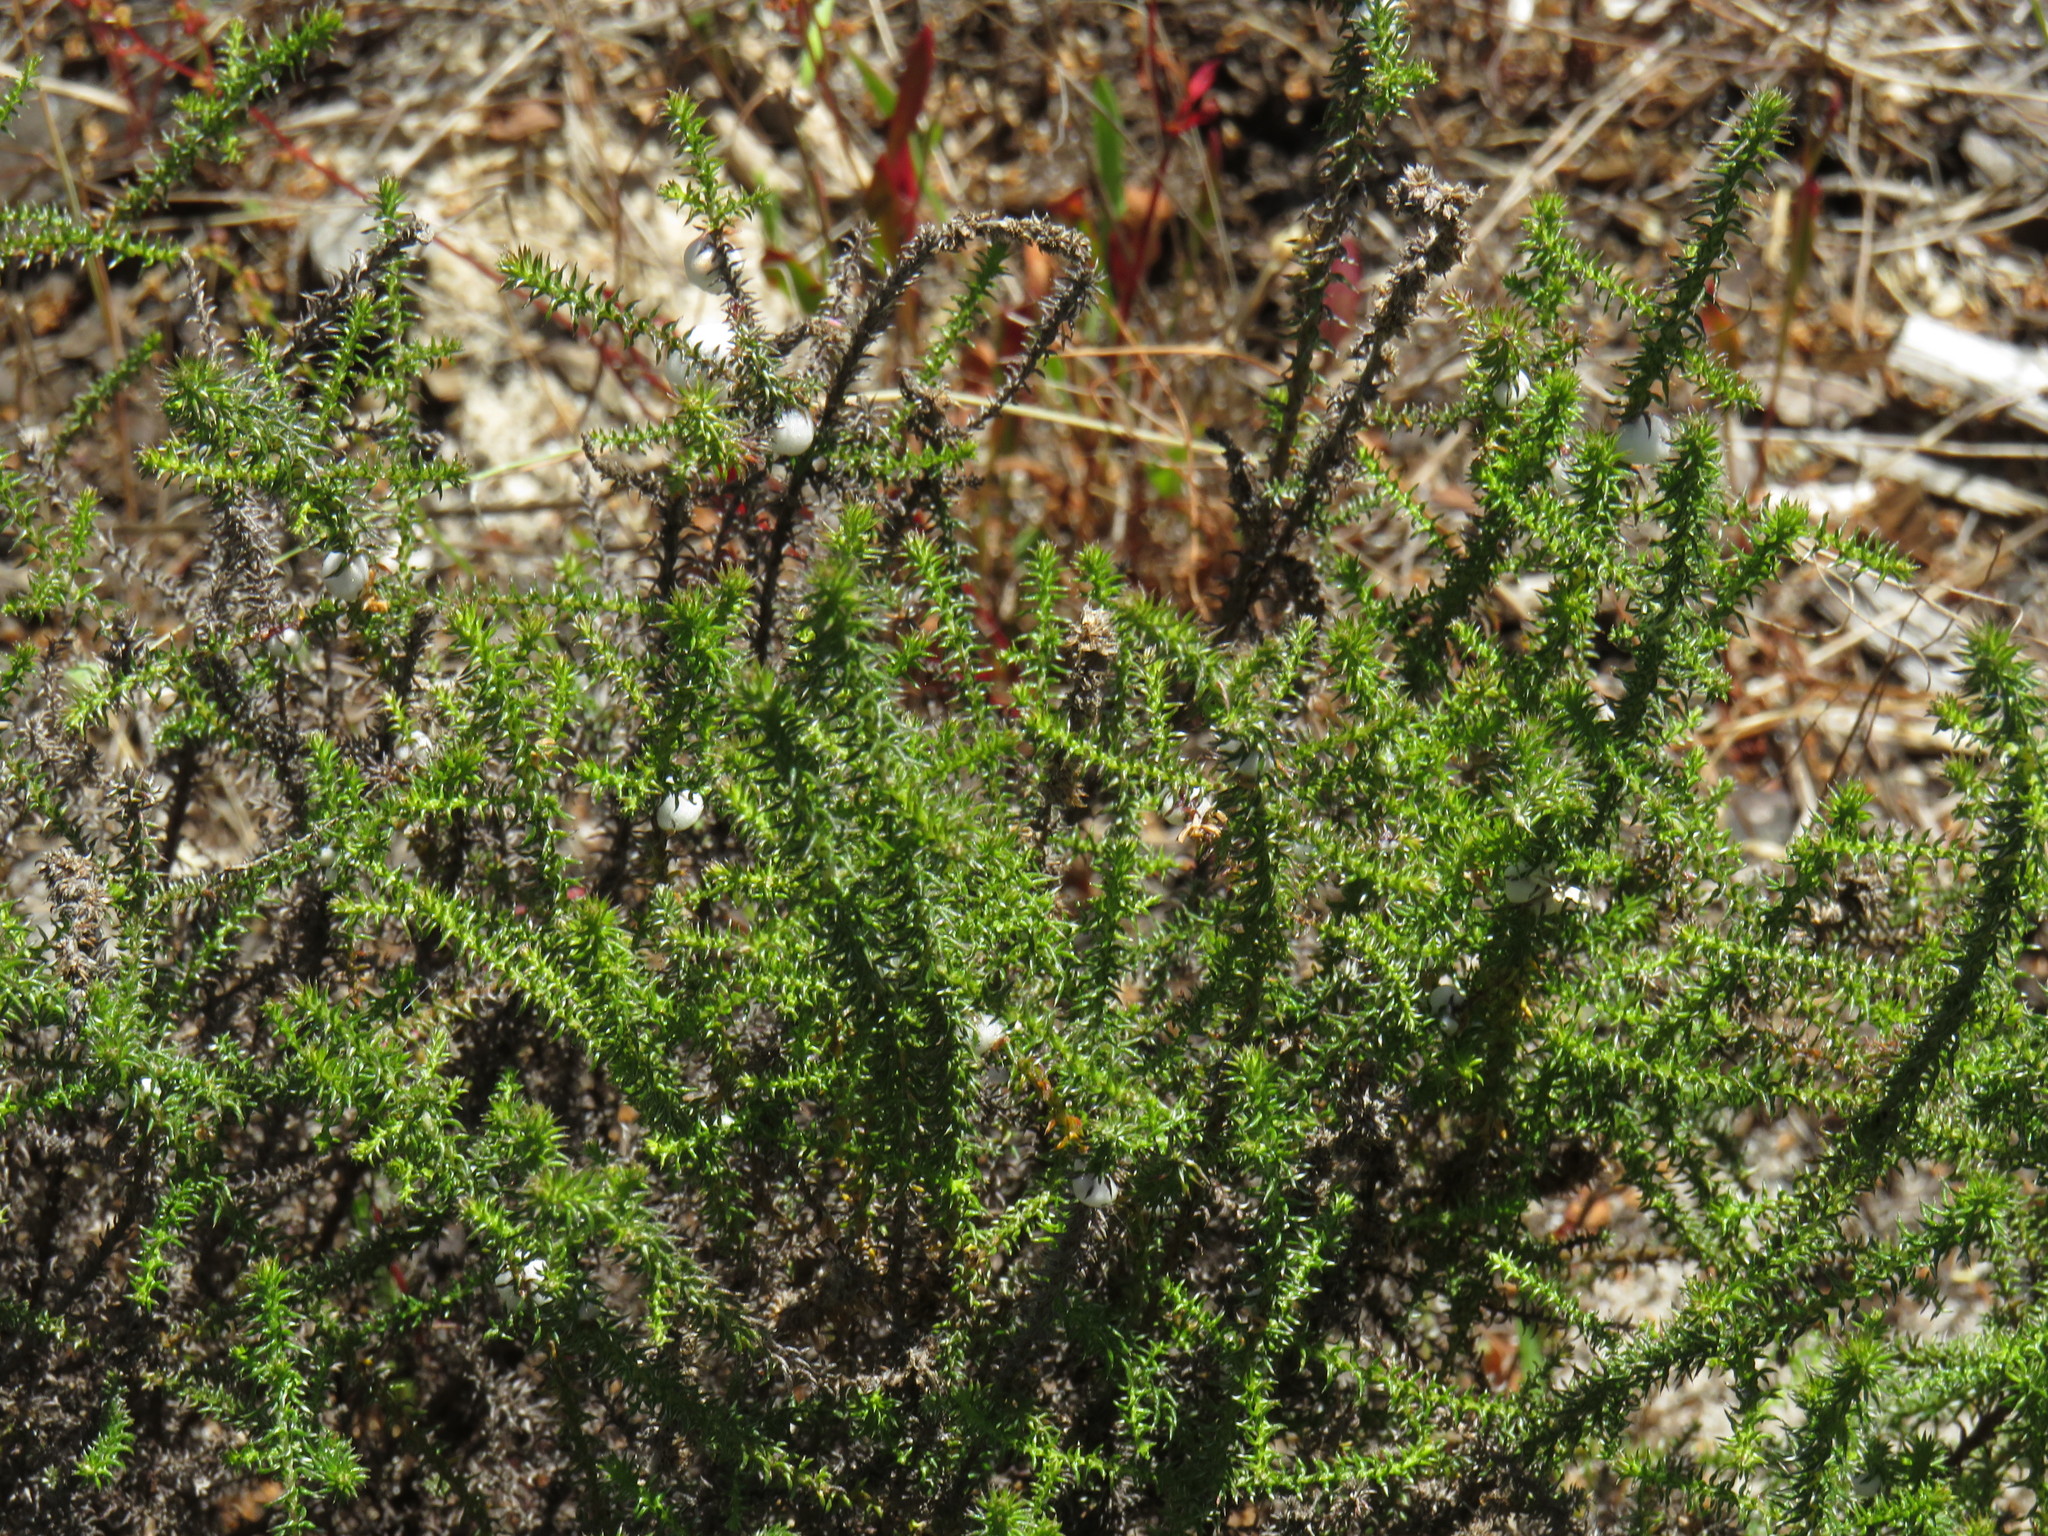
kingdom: Plantae
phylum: Tracheophyta
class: Magnoliopsida
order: Asterales
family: Asteraceae
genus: Seriphium
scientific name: Seriphium cinereum
